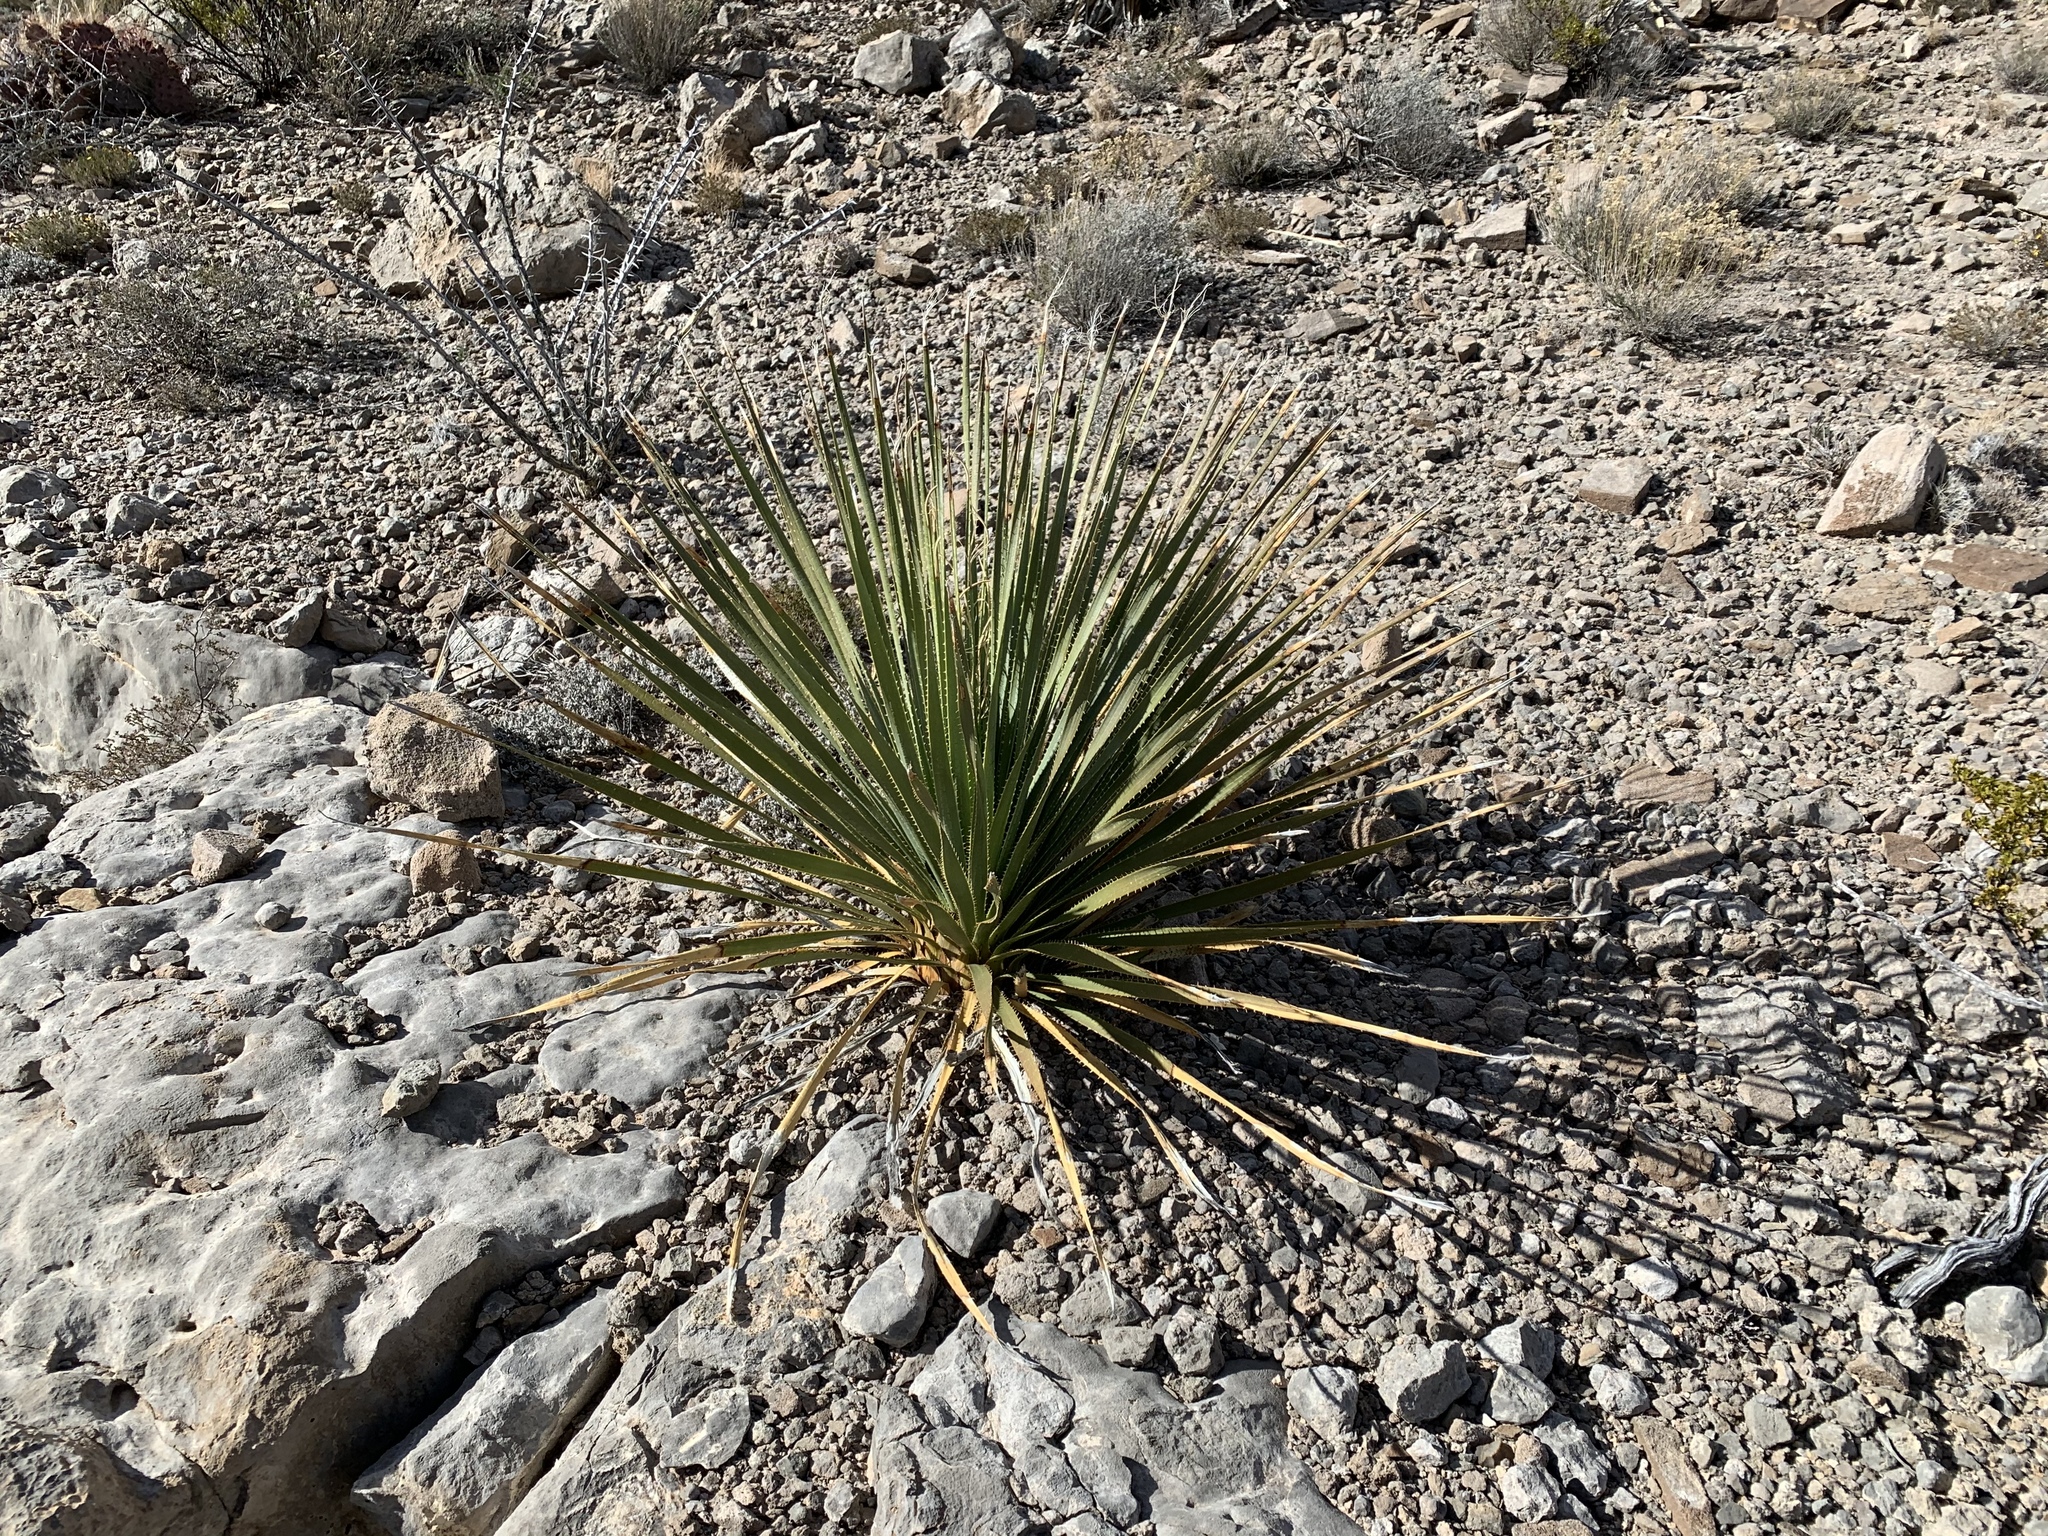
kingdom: Plantae
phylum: Tracheophyta
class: Liliopsida
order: Asparagales
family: Asparagaceae
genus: Dasylirion
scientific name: Dasylirion wheeleri
